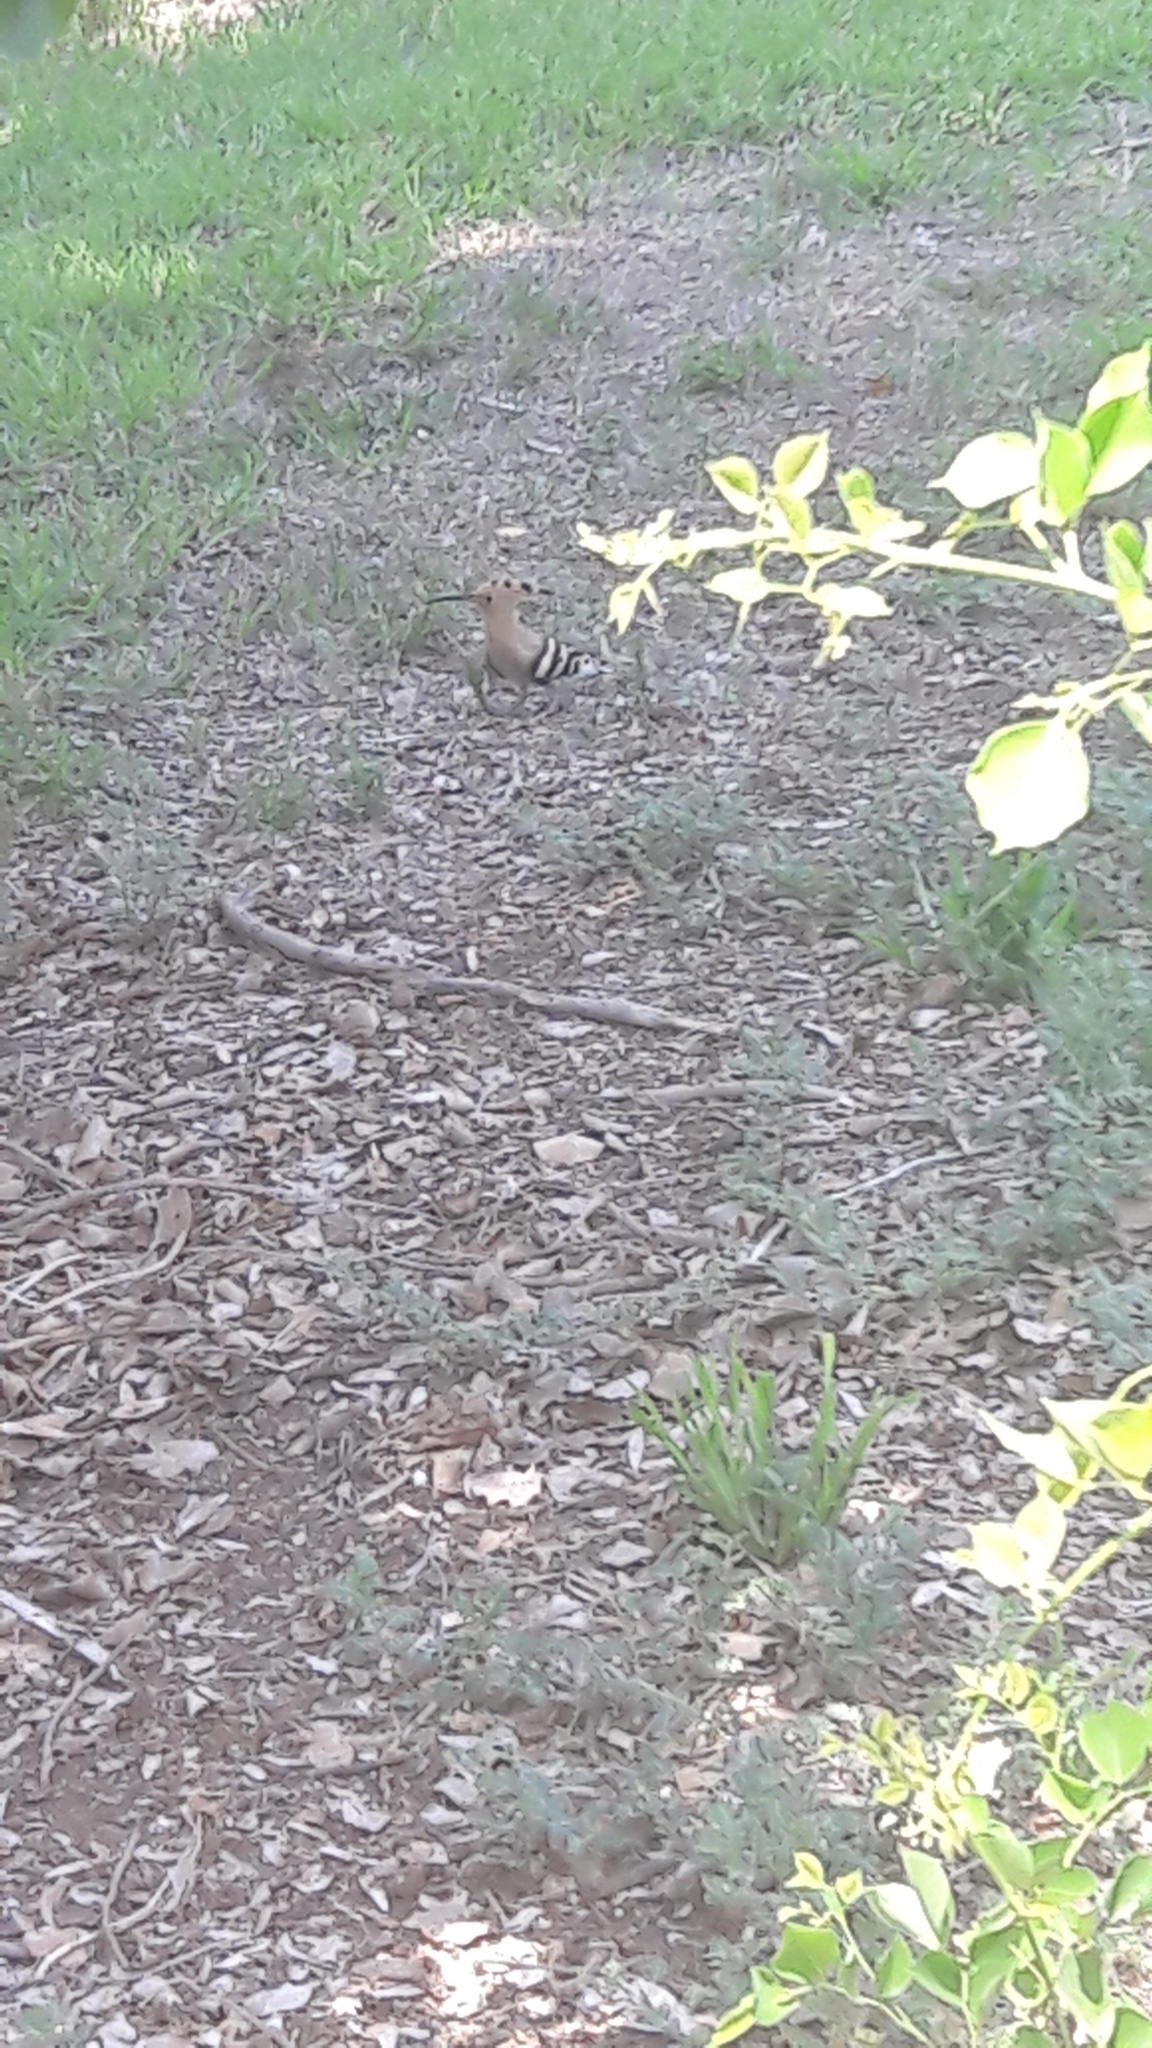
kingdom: Animalia
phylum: Chordata
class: Aves
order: Bucerotiformes
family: Upupidae
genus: Upupa
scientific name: Upupa epops
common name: Eurasian hoopoe
